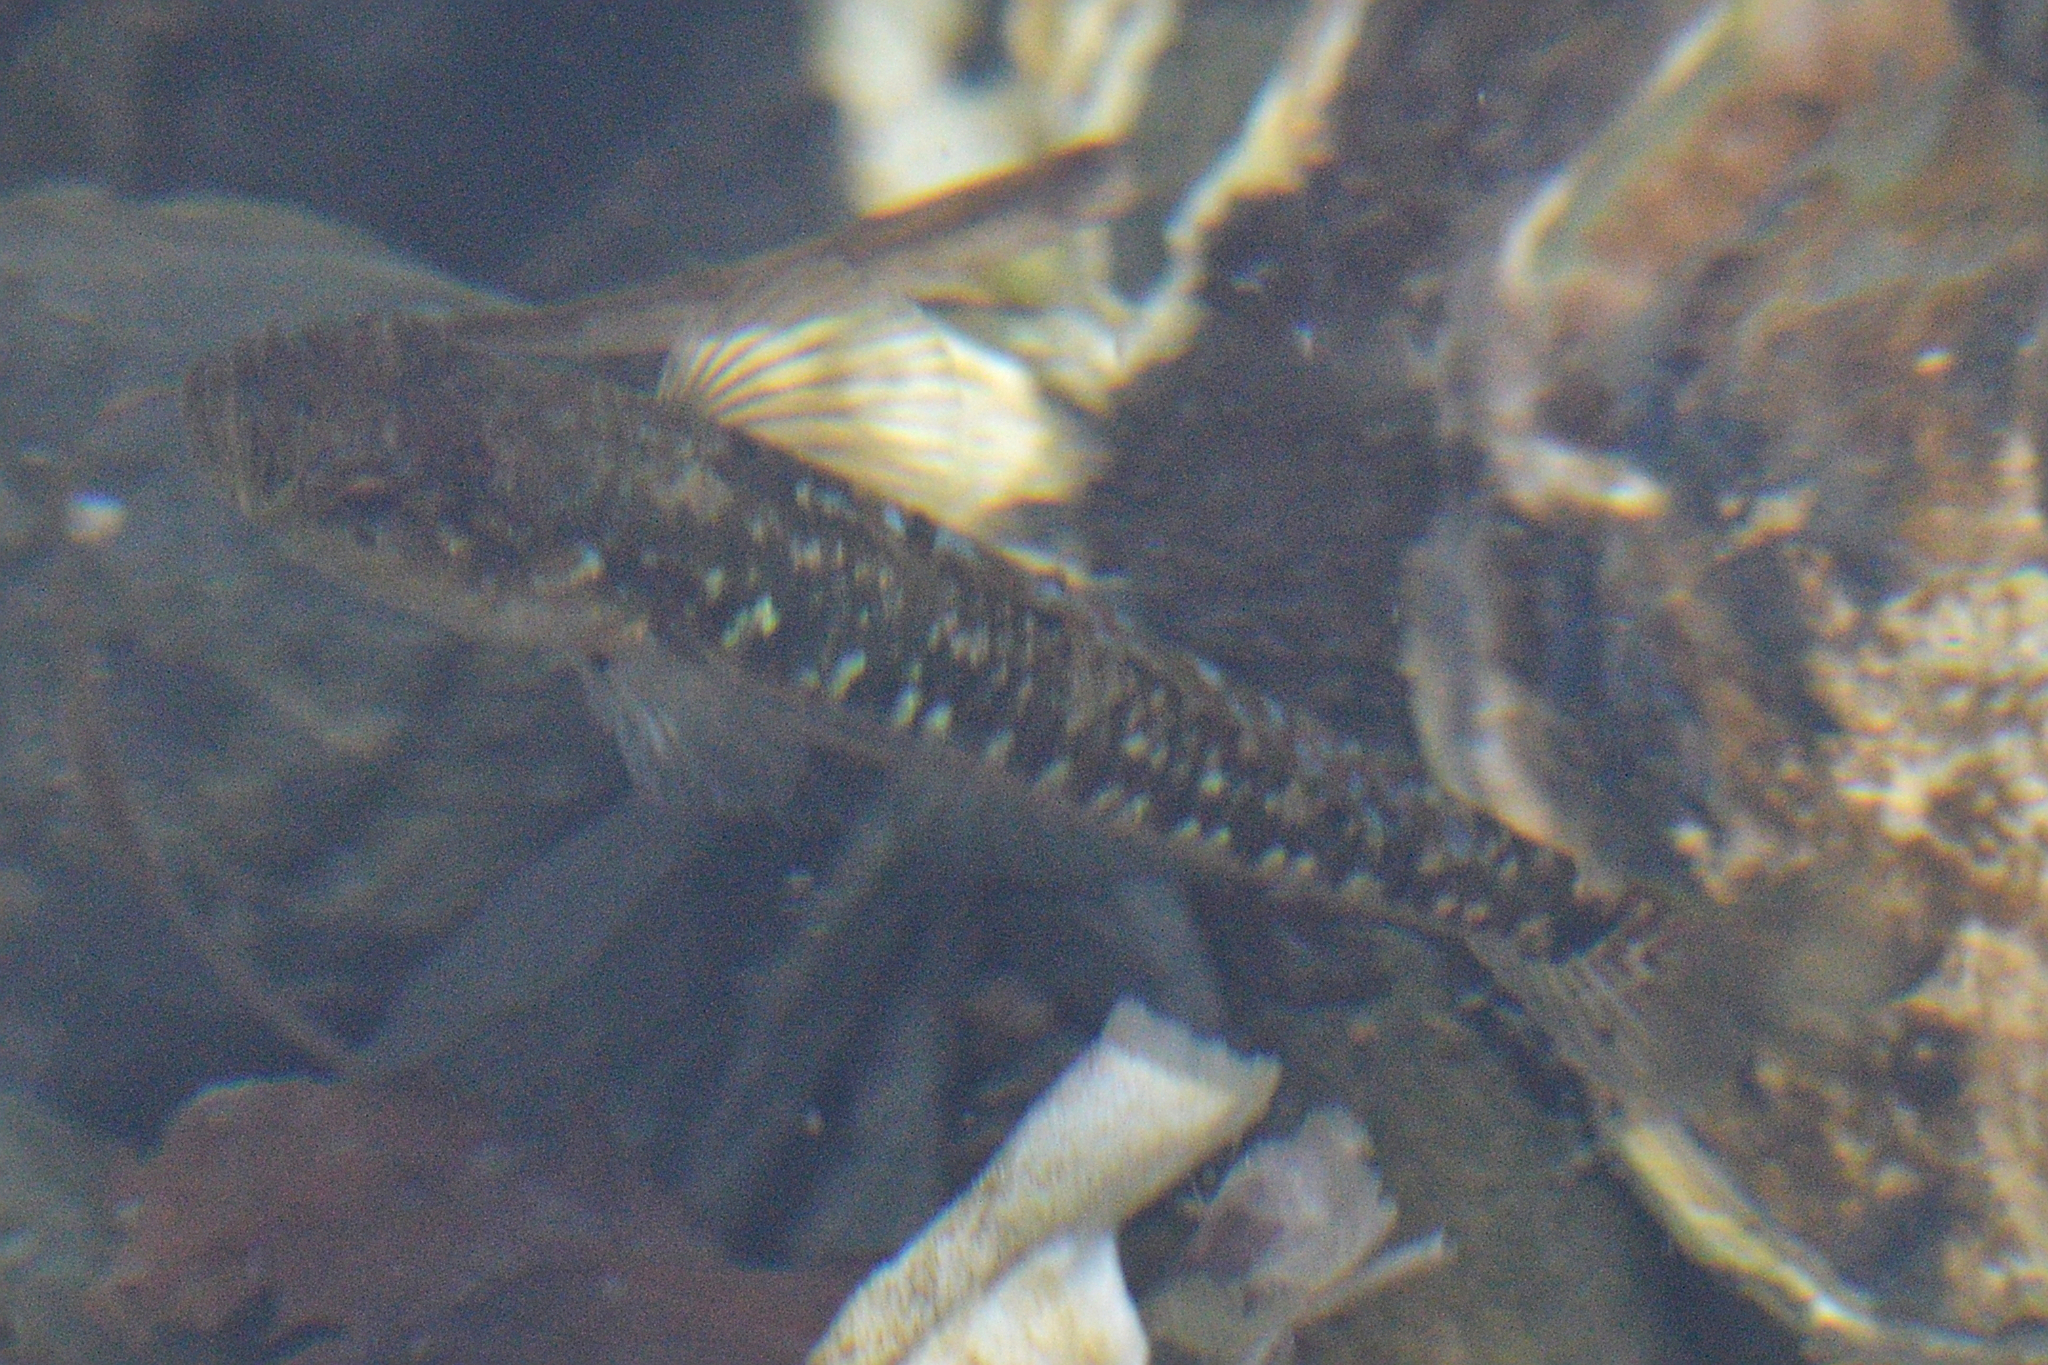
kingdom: Animalia
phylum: Chordata
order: Perciformes
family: Gobiidae
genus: Gobiusculus
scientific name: Gobiusculus flavescens
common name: Two-spotted goby
